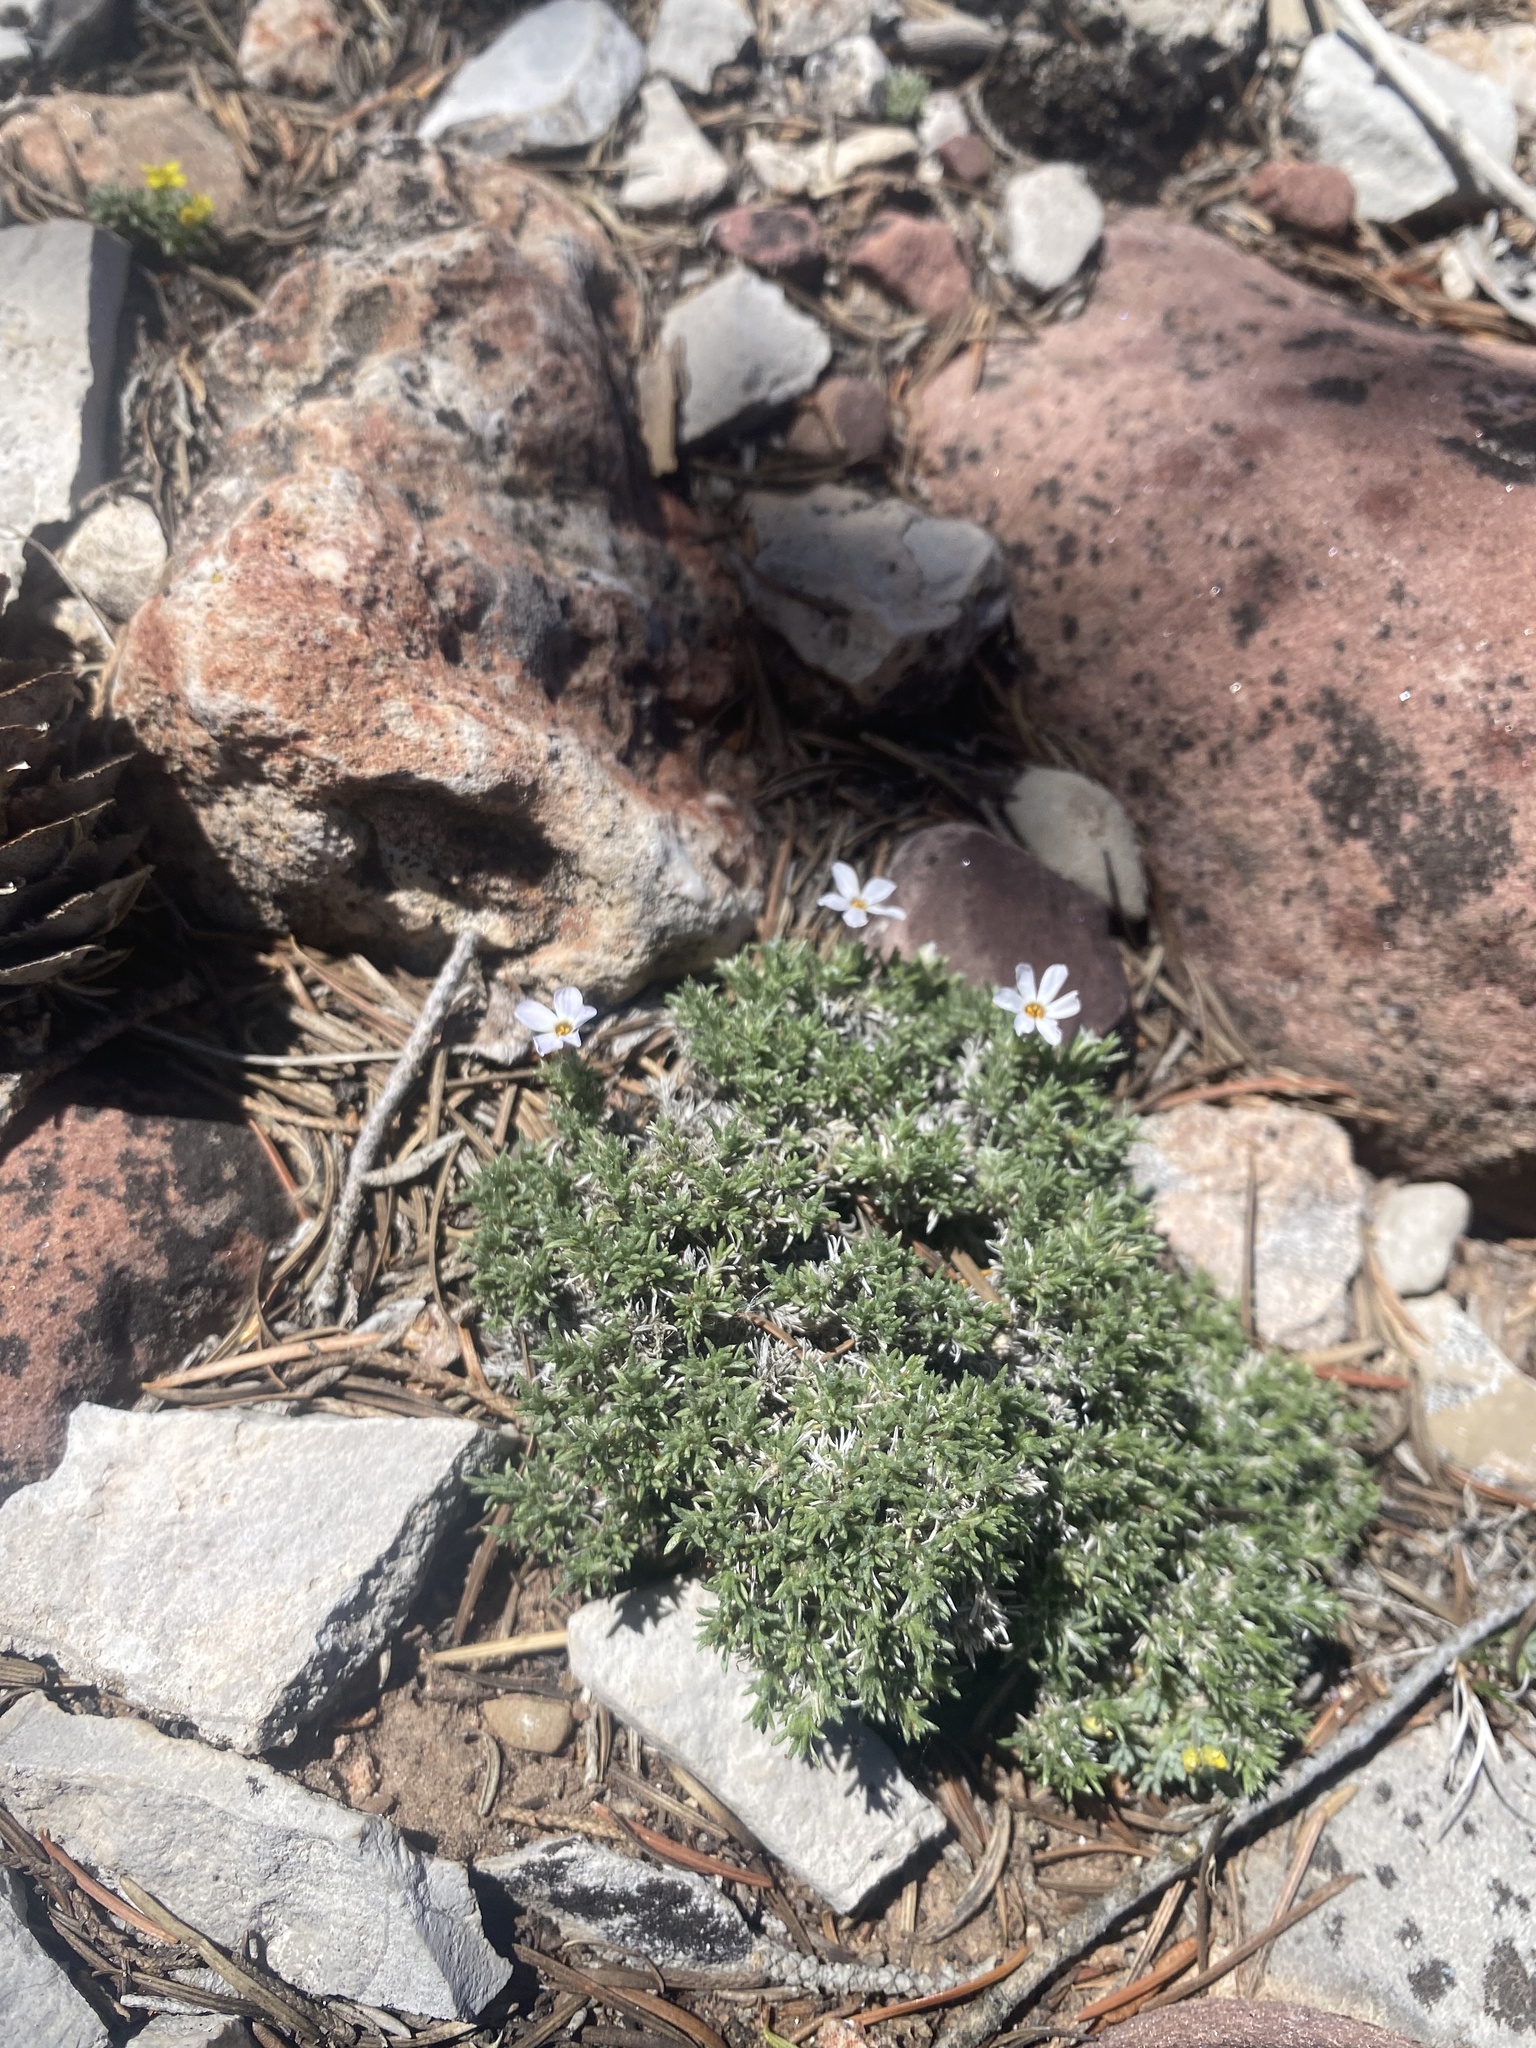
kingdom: Plantae
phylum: Tracheophyta
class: Magnoliopsida
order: Ericales
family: Polemoniaceae
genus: Phlox
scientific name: Phlox hoodii
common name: Moss phlox
